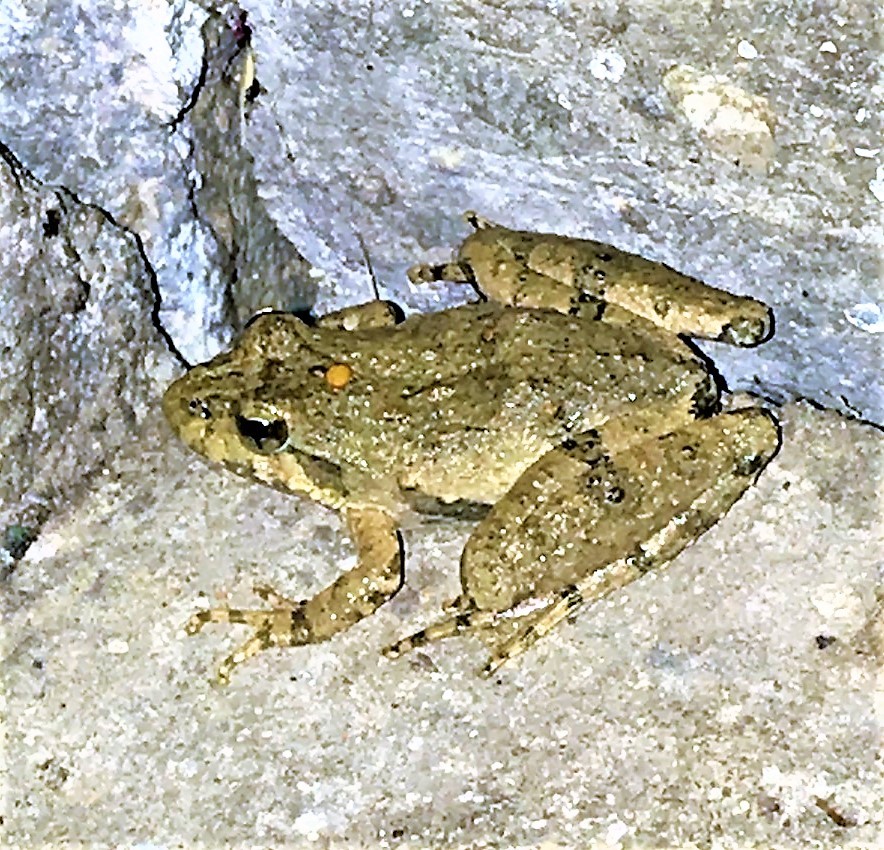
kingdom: Animalia
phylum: Chordata
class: Amphibia
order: Anura
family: Hylidae
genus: Acris
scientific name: Acris blanchardi
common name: Blanchard's cricket frog
